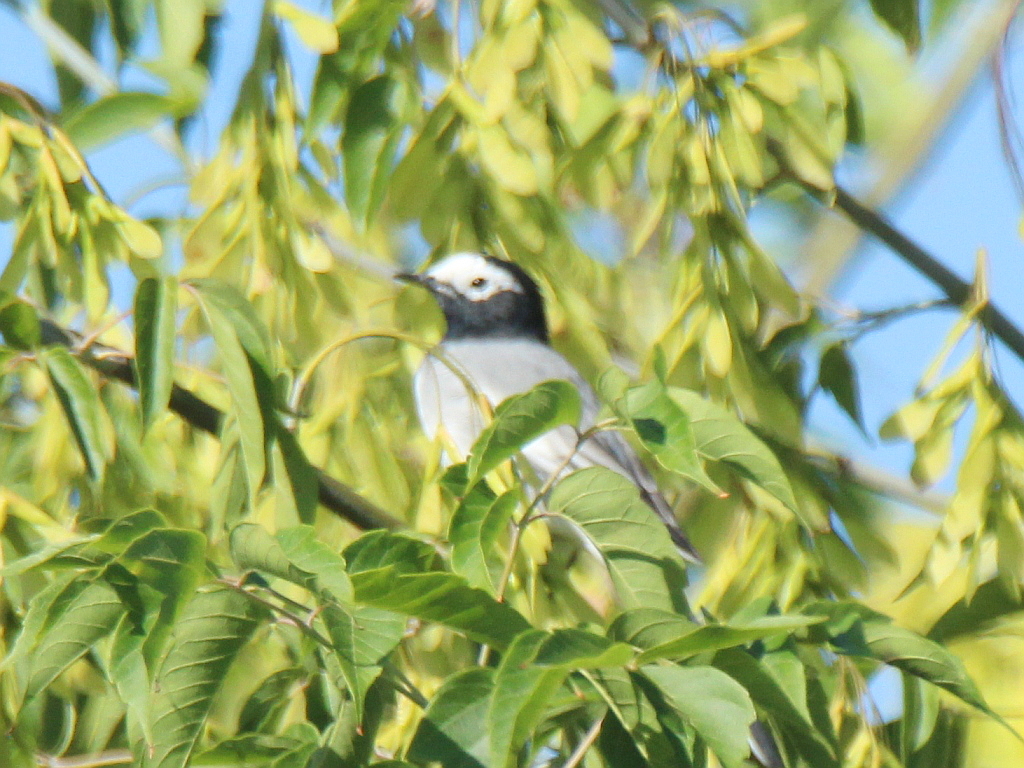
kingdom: Animalia
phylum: Chordata
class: Aves
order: Passeriformes
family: Motacillidae
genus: Motacilla
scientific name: Motacilla alba
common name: White wagtail
